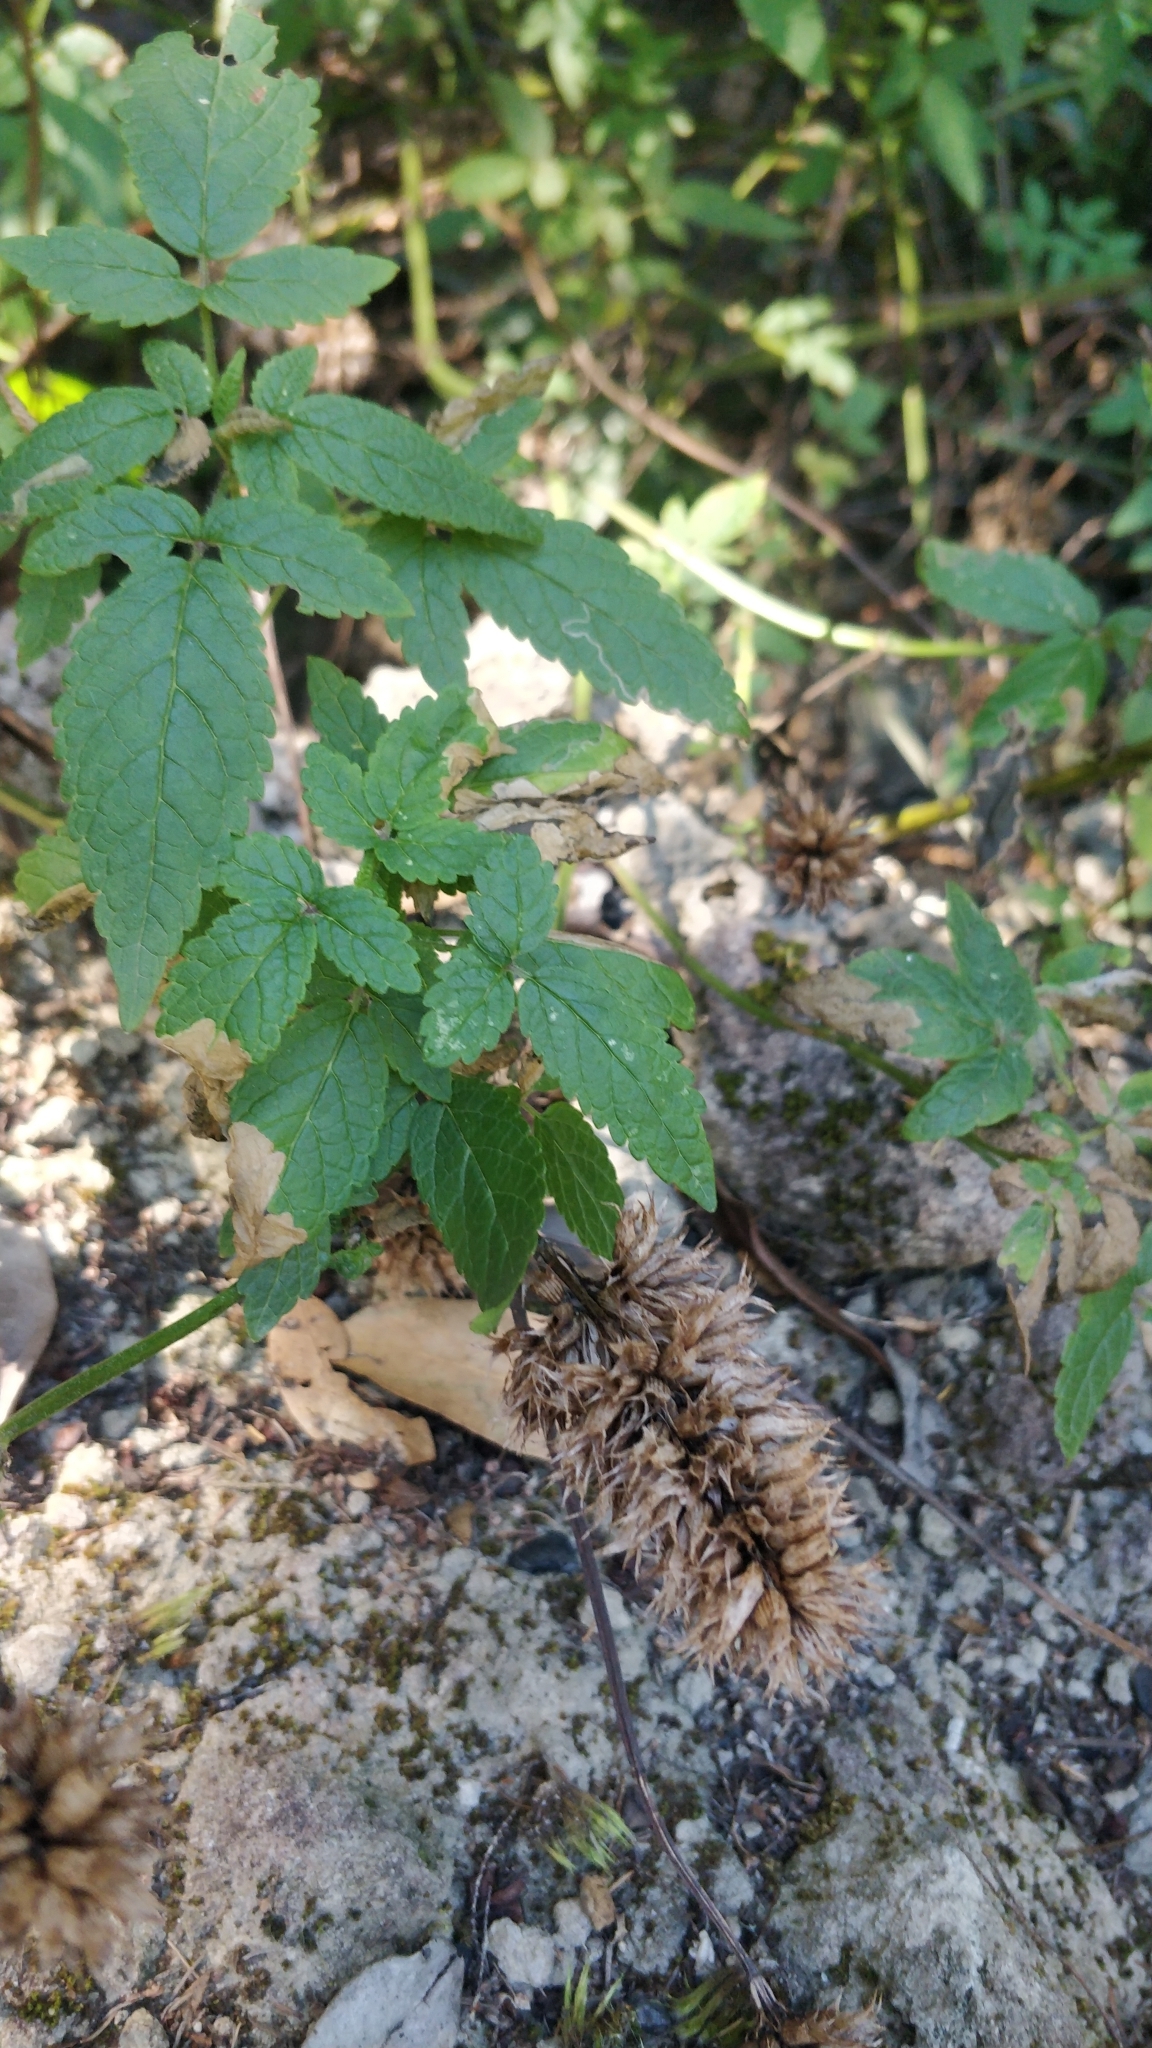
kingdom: Plantae
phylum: Tracheophyta
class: Magnoliopsida
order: Lamiales
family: Lamiaceae
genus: Cedronella
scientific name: Cedronella canariensis
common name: Canary islands balm
